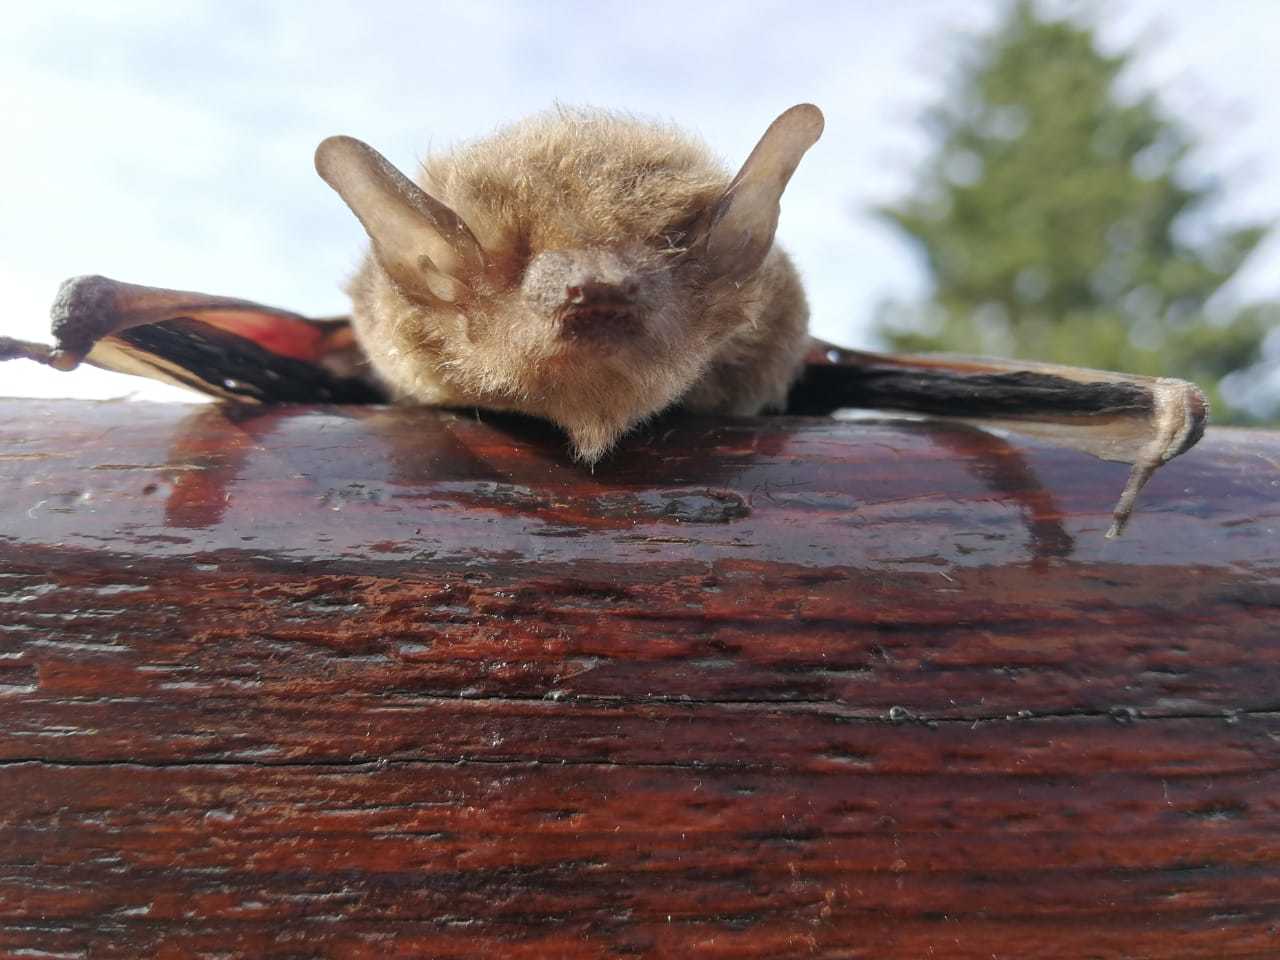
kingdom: Animalia
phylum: Chordata
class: Mammalia
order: Chiroptera
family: Vespertilionidae
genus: Laephotis
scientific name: Laephotis capensis
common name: Cape serotine
